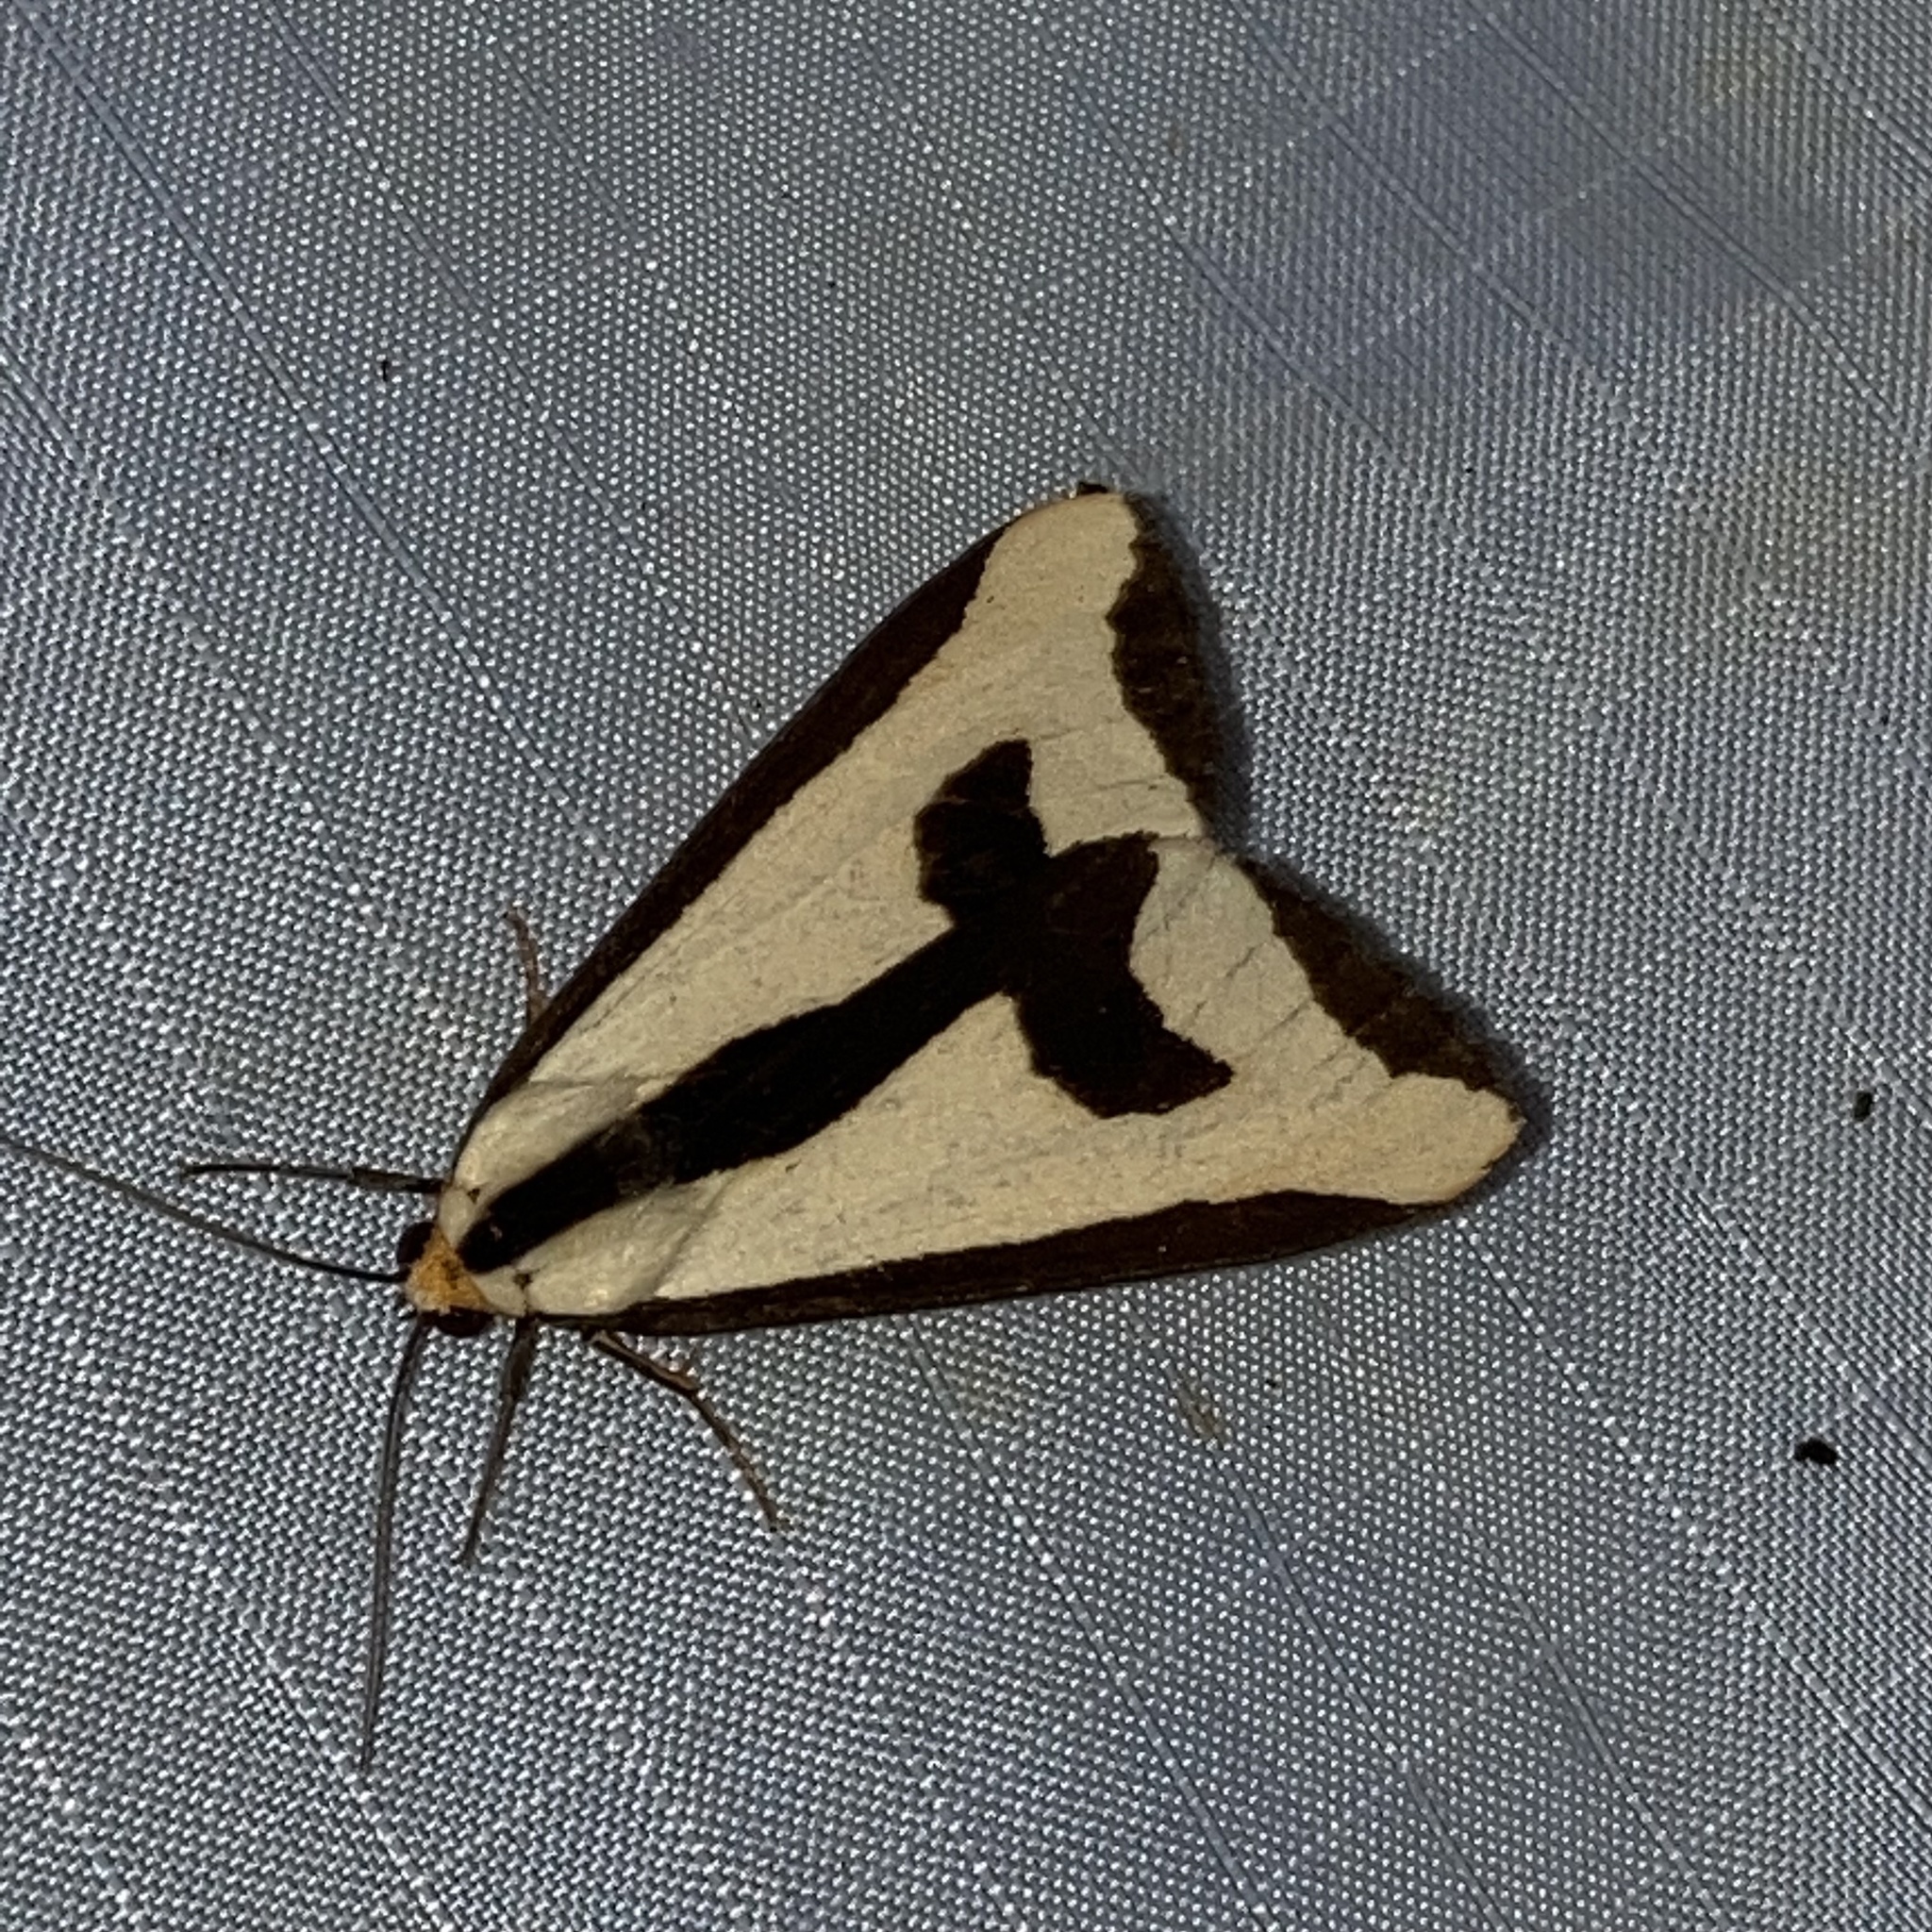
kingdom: Animalia
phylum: Arthropoda
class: Insecta
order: Lepidoptera
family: Erebidae
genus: Haploa
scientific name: Haploa clymene
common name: Clymene moth
